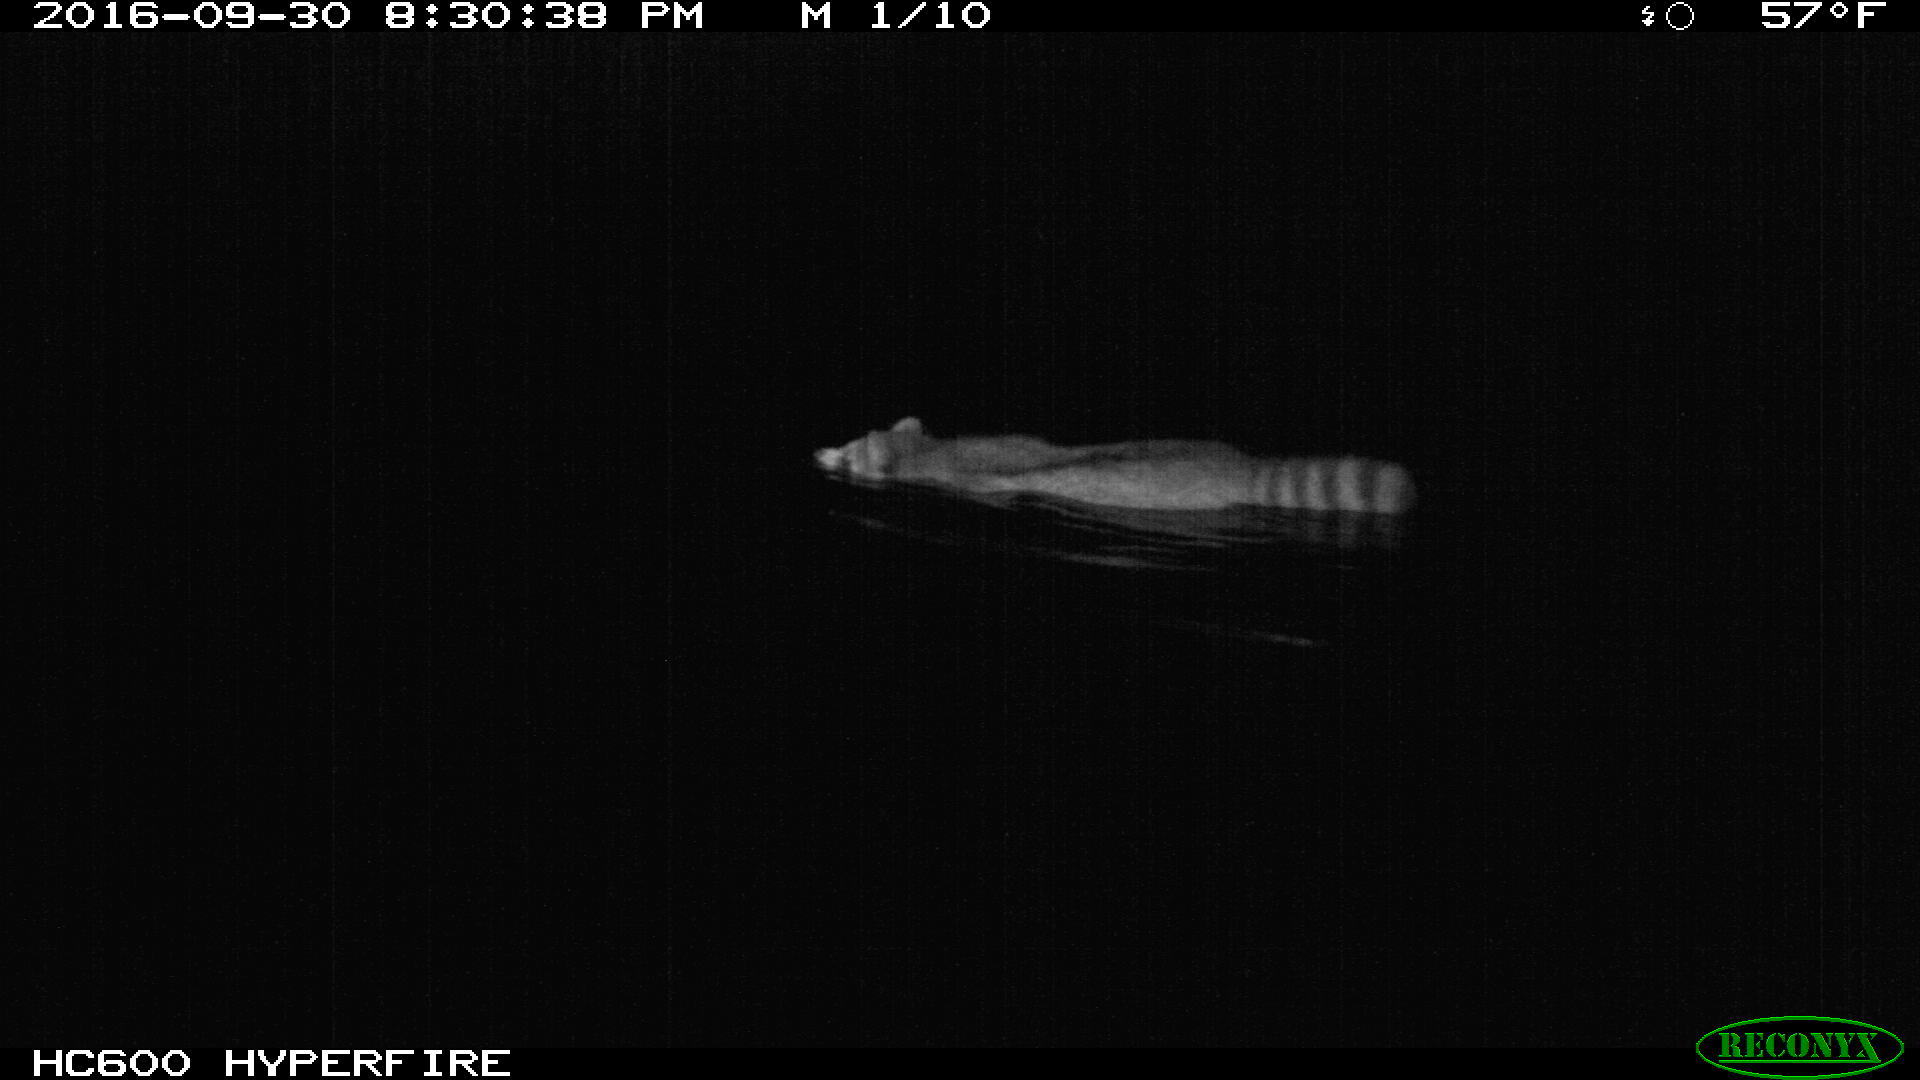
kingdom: Animalia
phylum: Chordata
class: Mammalia
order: Carnivora
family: Procyonidae
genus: Procyon
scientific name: Procyon lotor
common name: Raccoon
